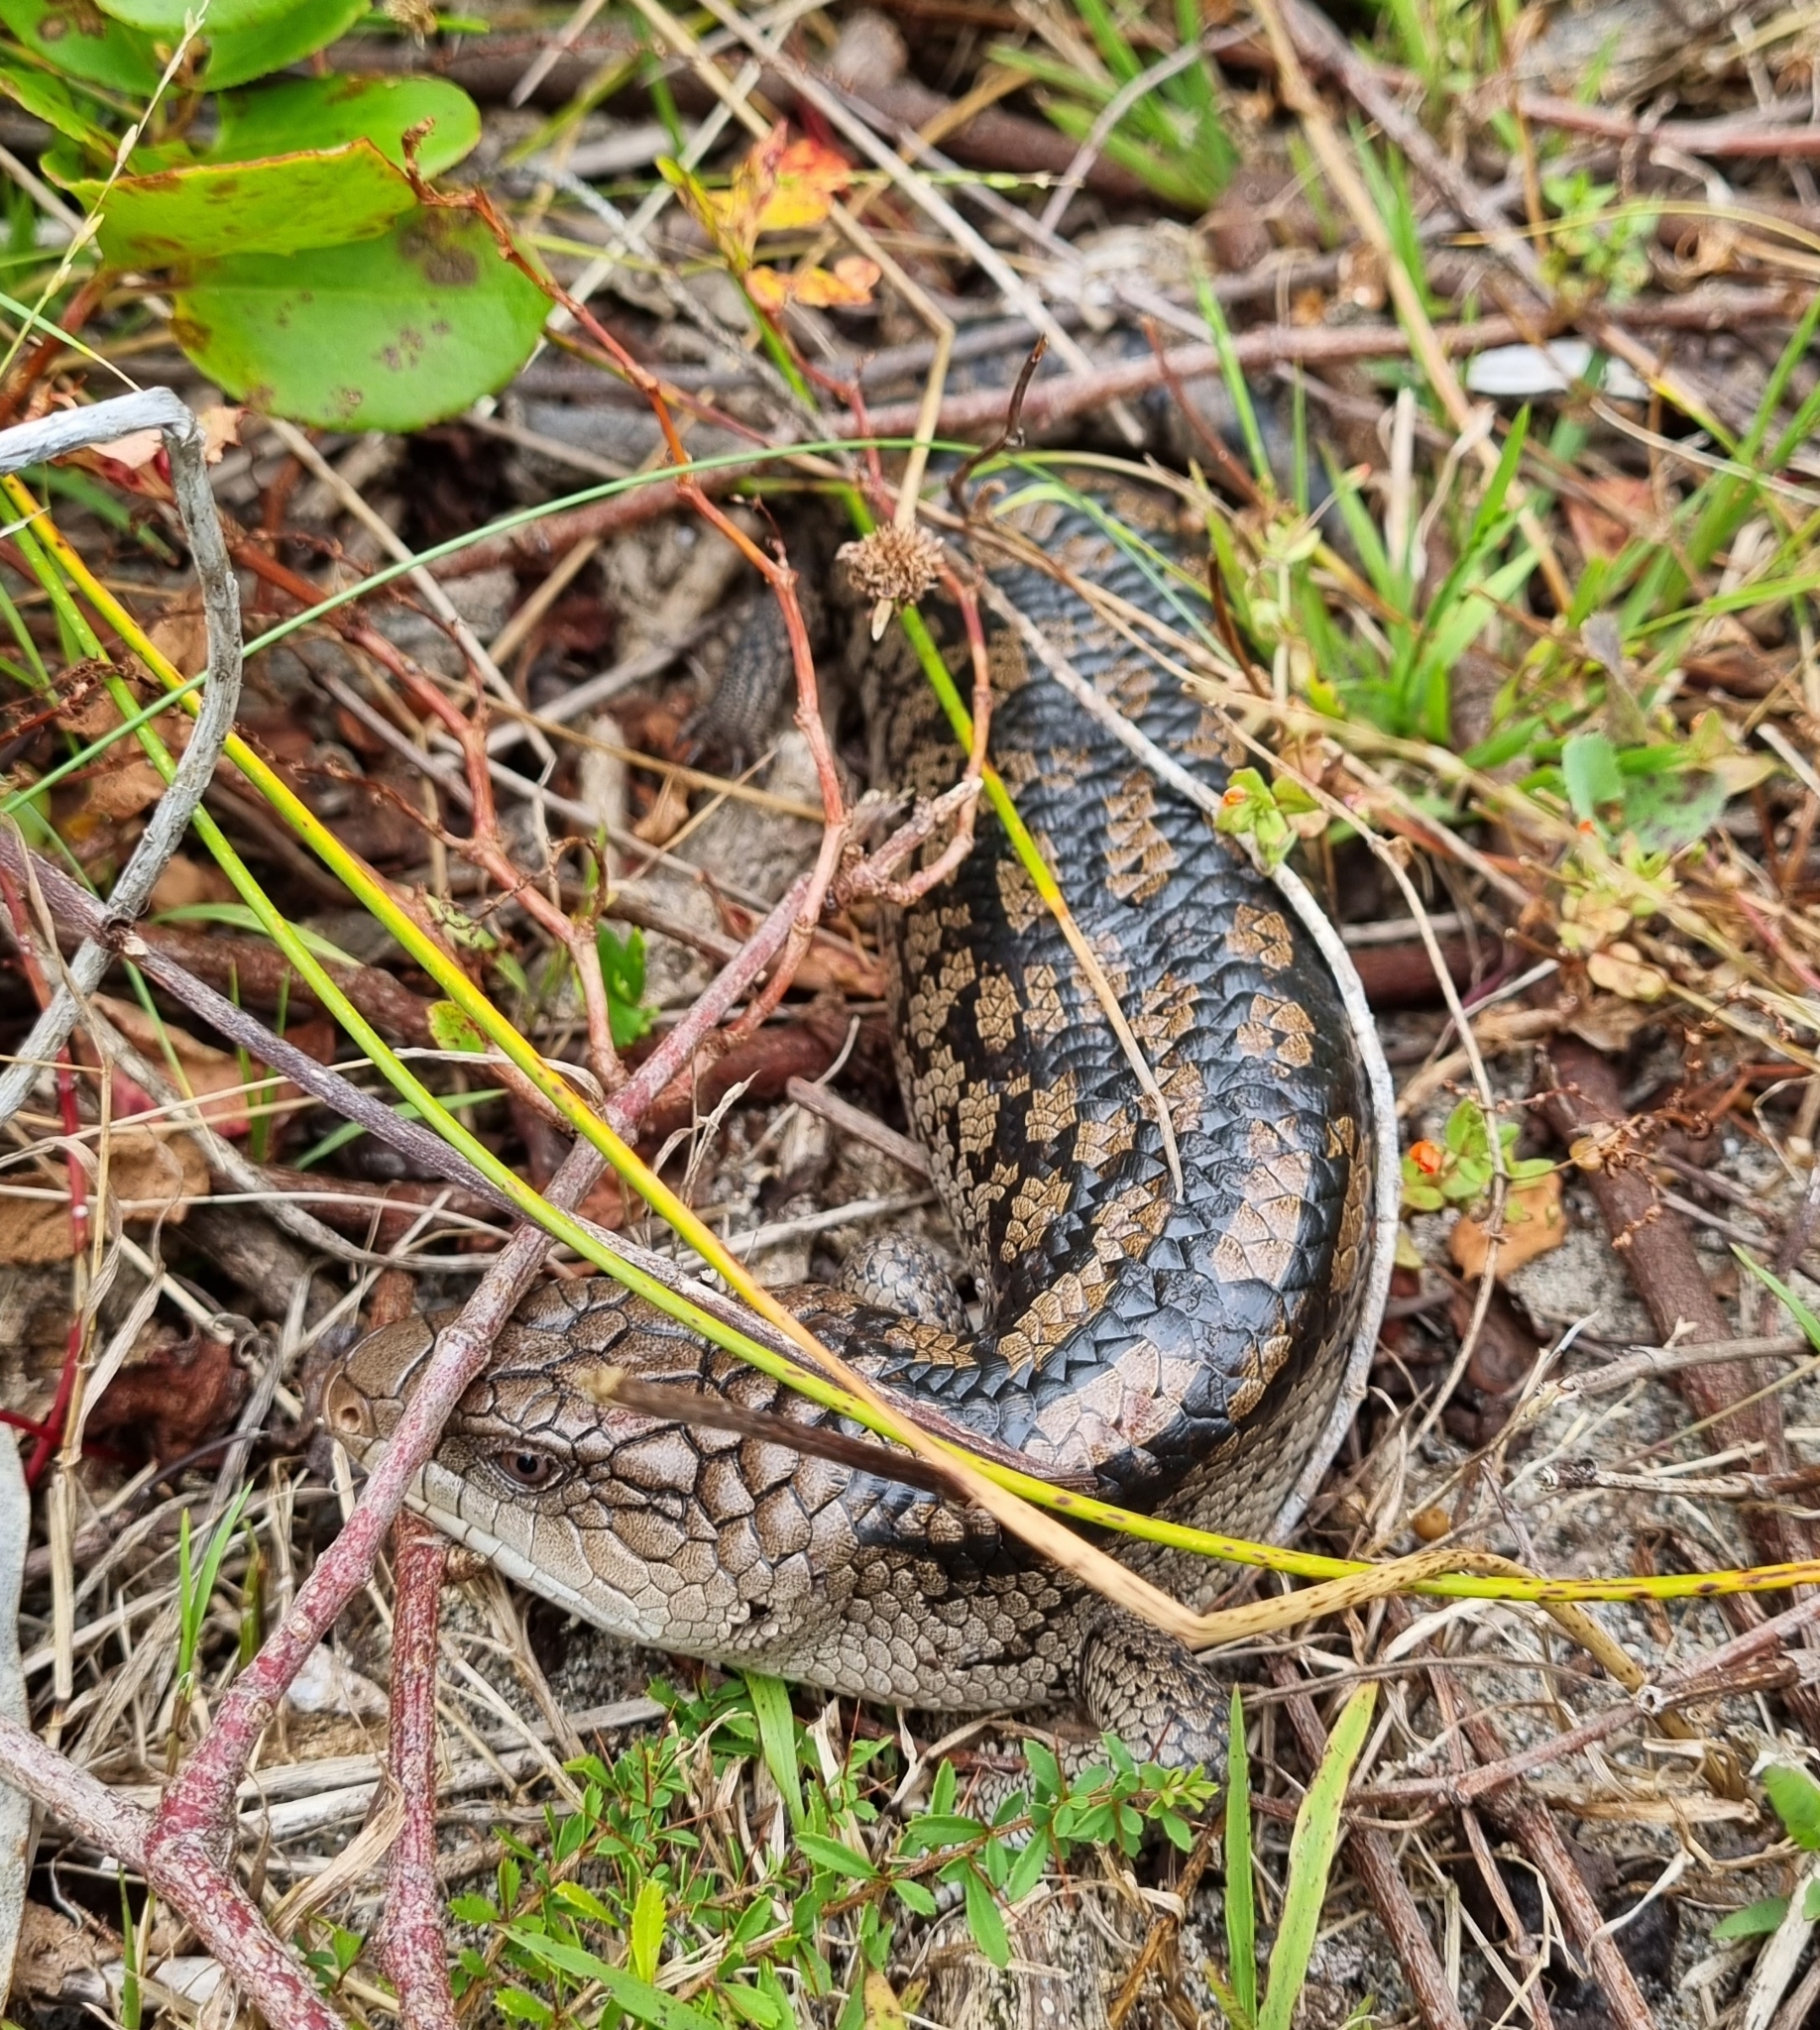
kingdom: Animalia
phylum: Chordata
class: Squamata
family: Scincidae
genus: Tiliqua
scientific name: Tiliqua nigrolutea
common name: Blotched blue-tongued lizard
